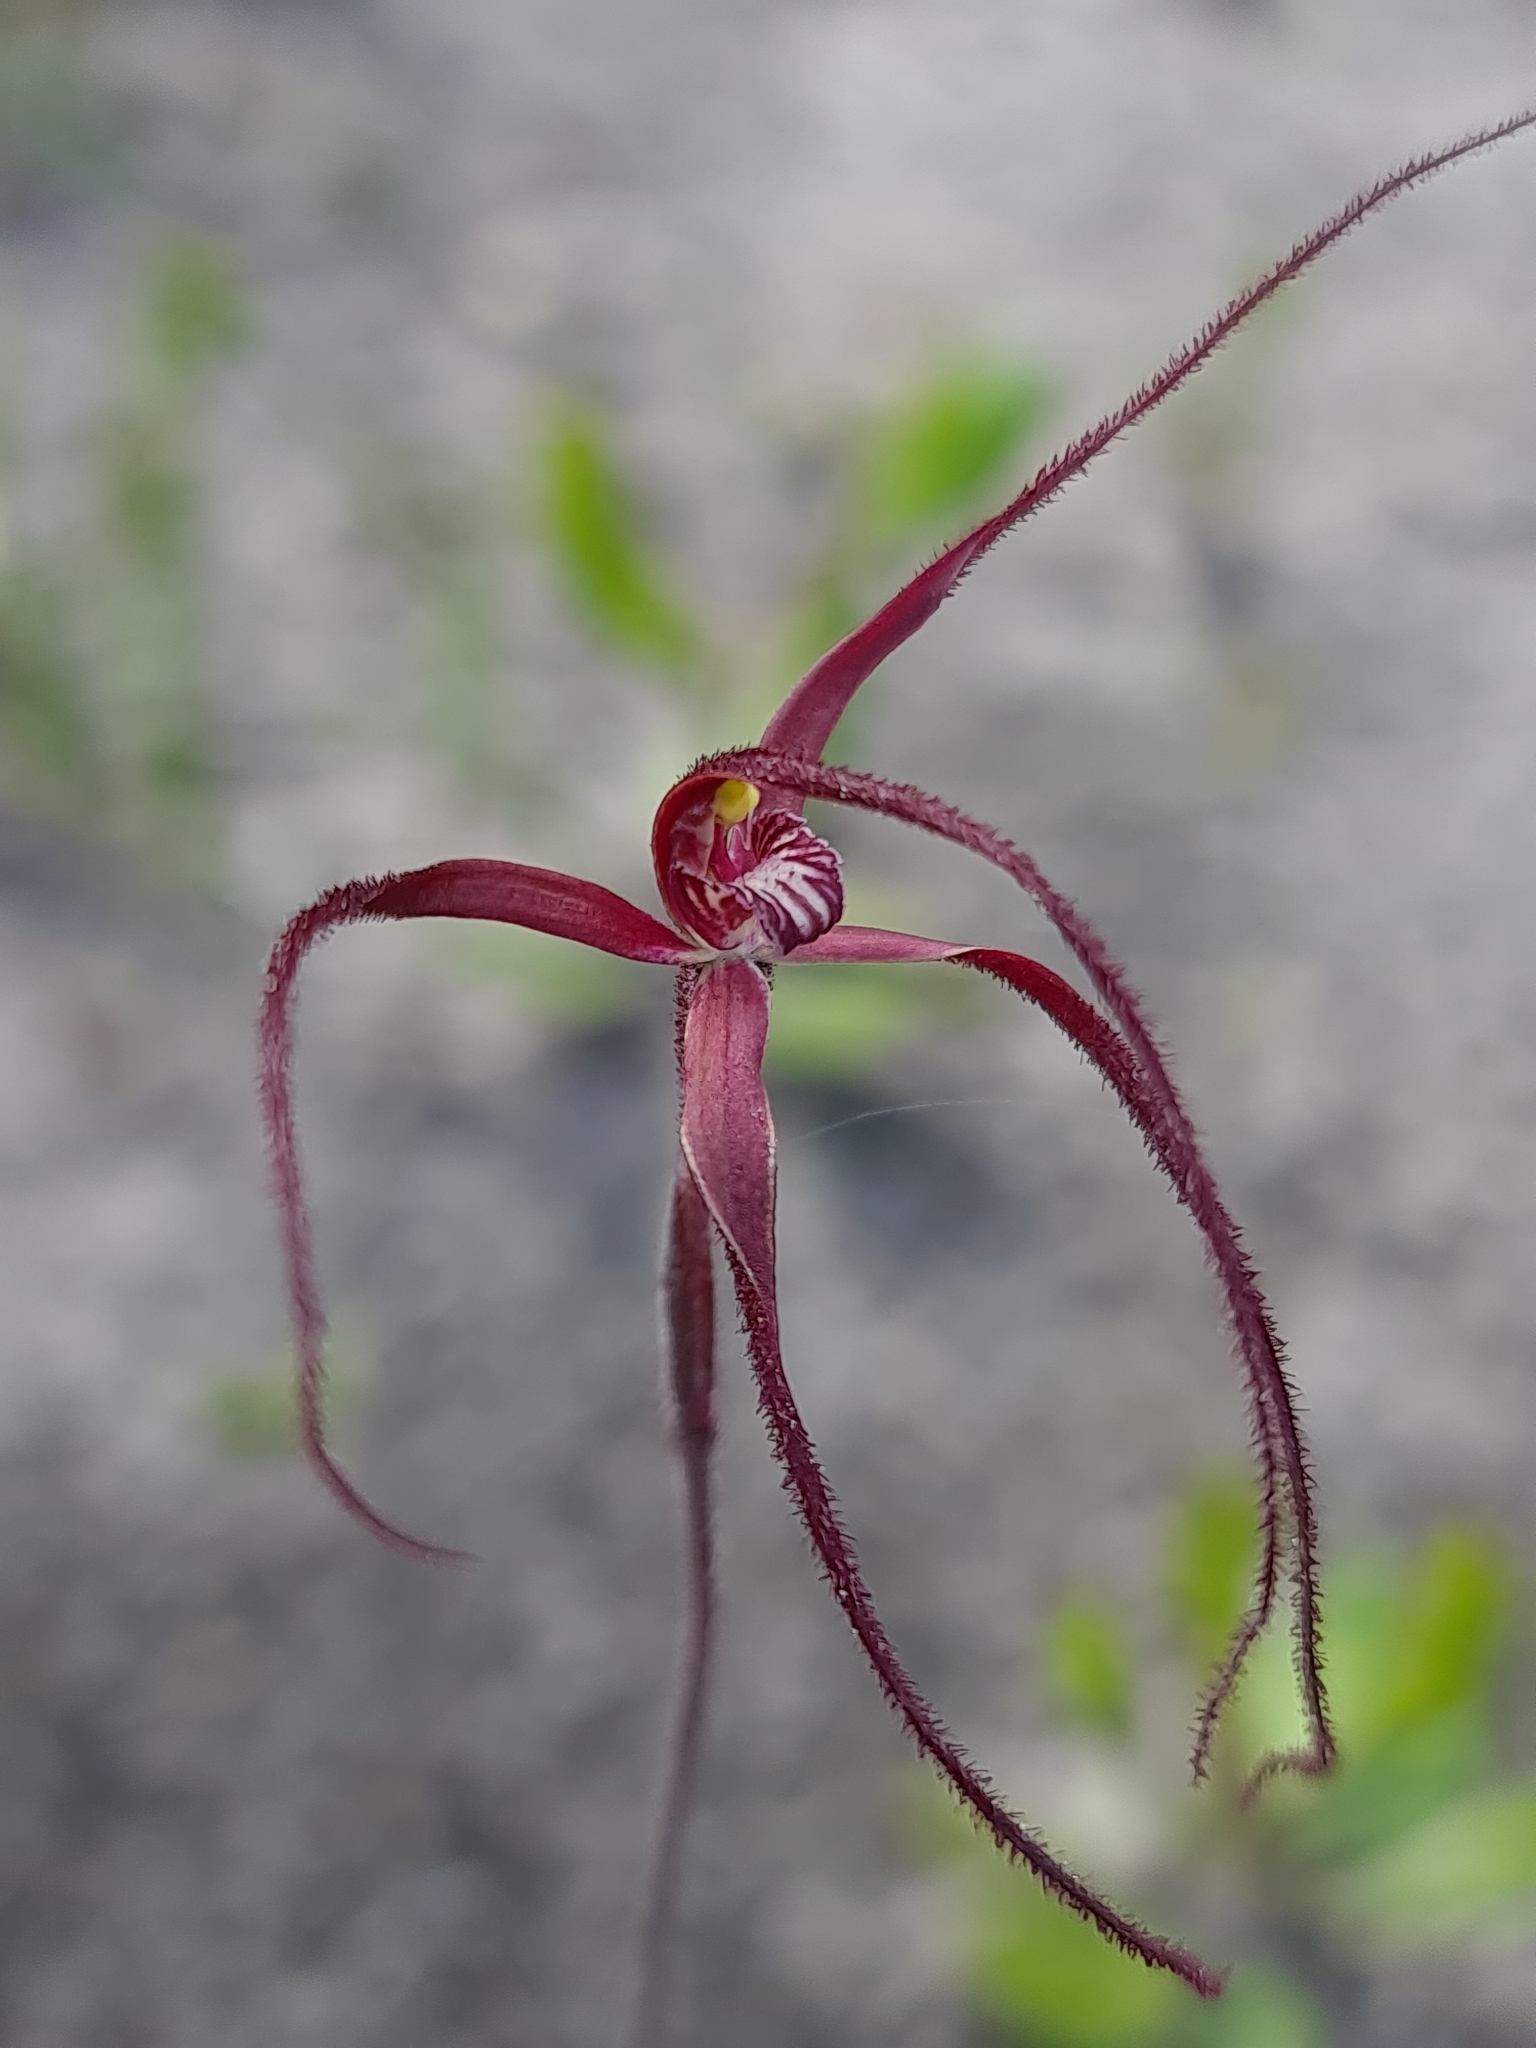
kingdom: Plantae
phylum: Tracheophyta
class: Liliopsida
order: Asparagales
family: Orchidaceae
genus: Caladenia
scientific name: Caladenia polychroma
